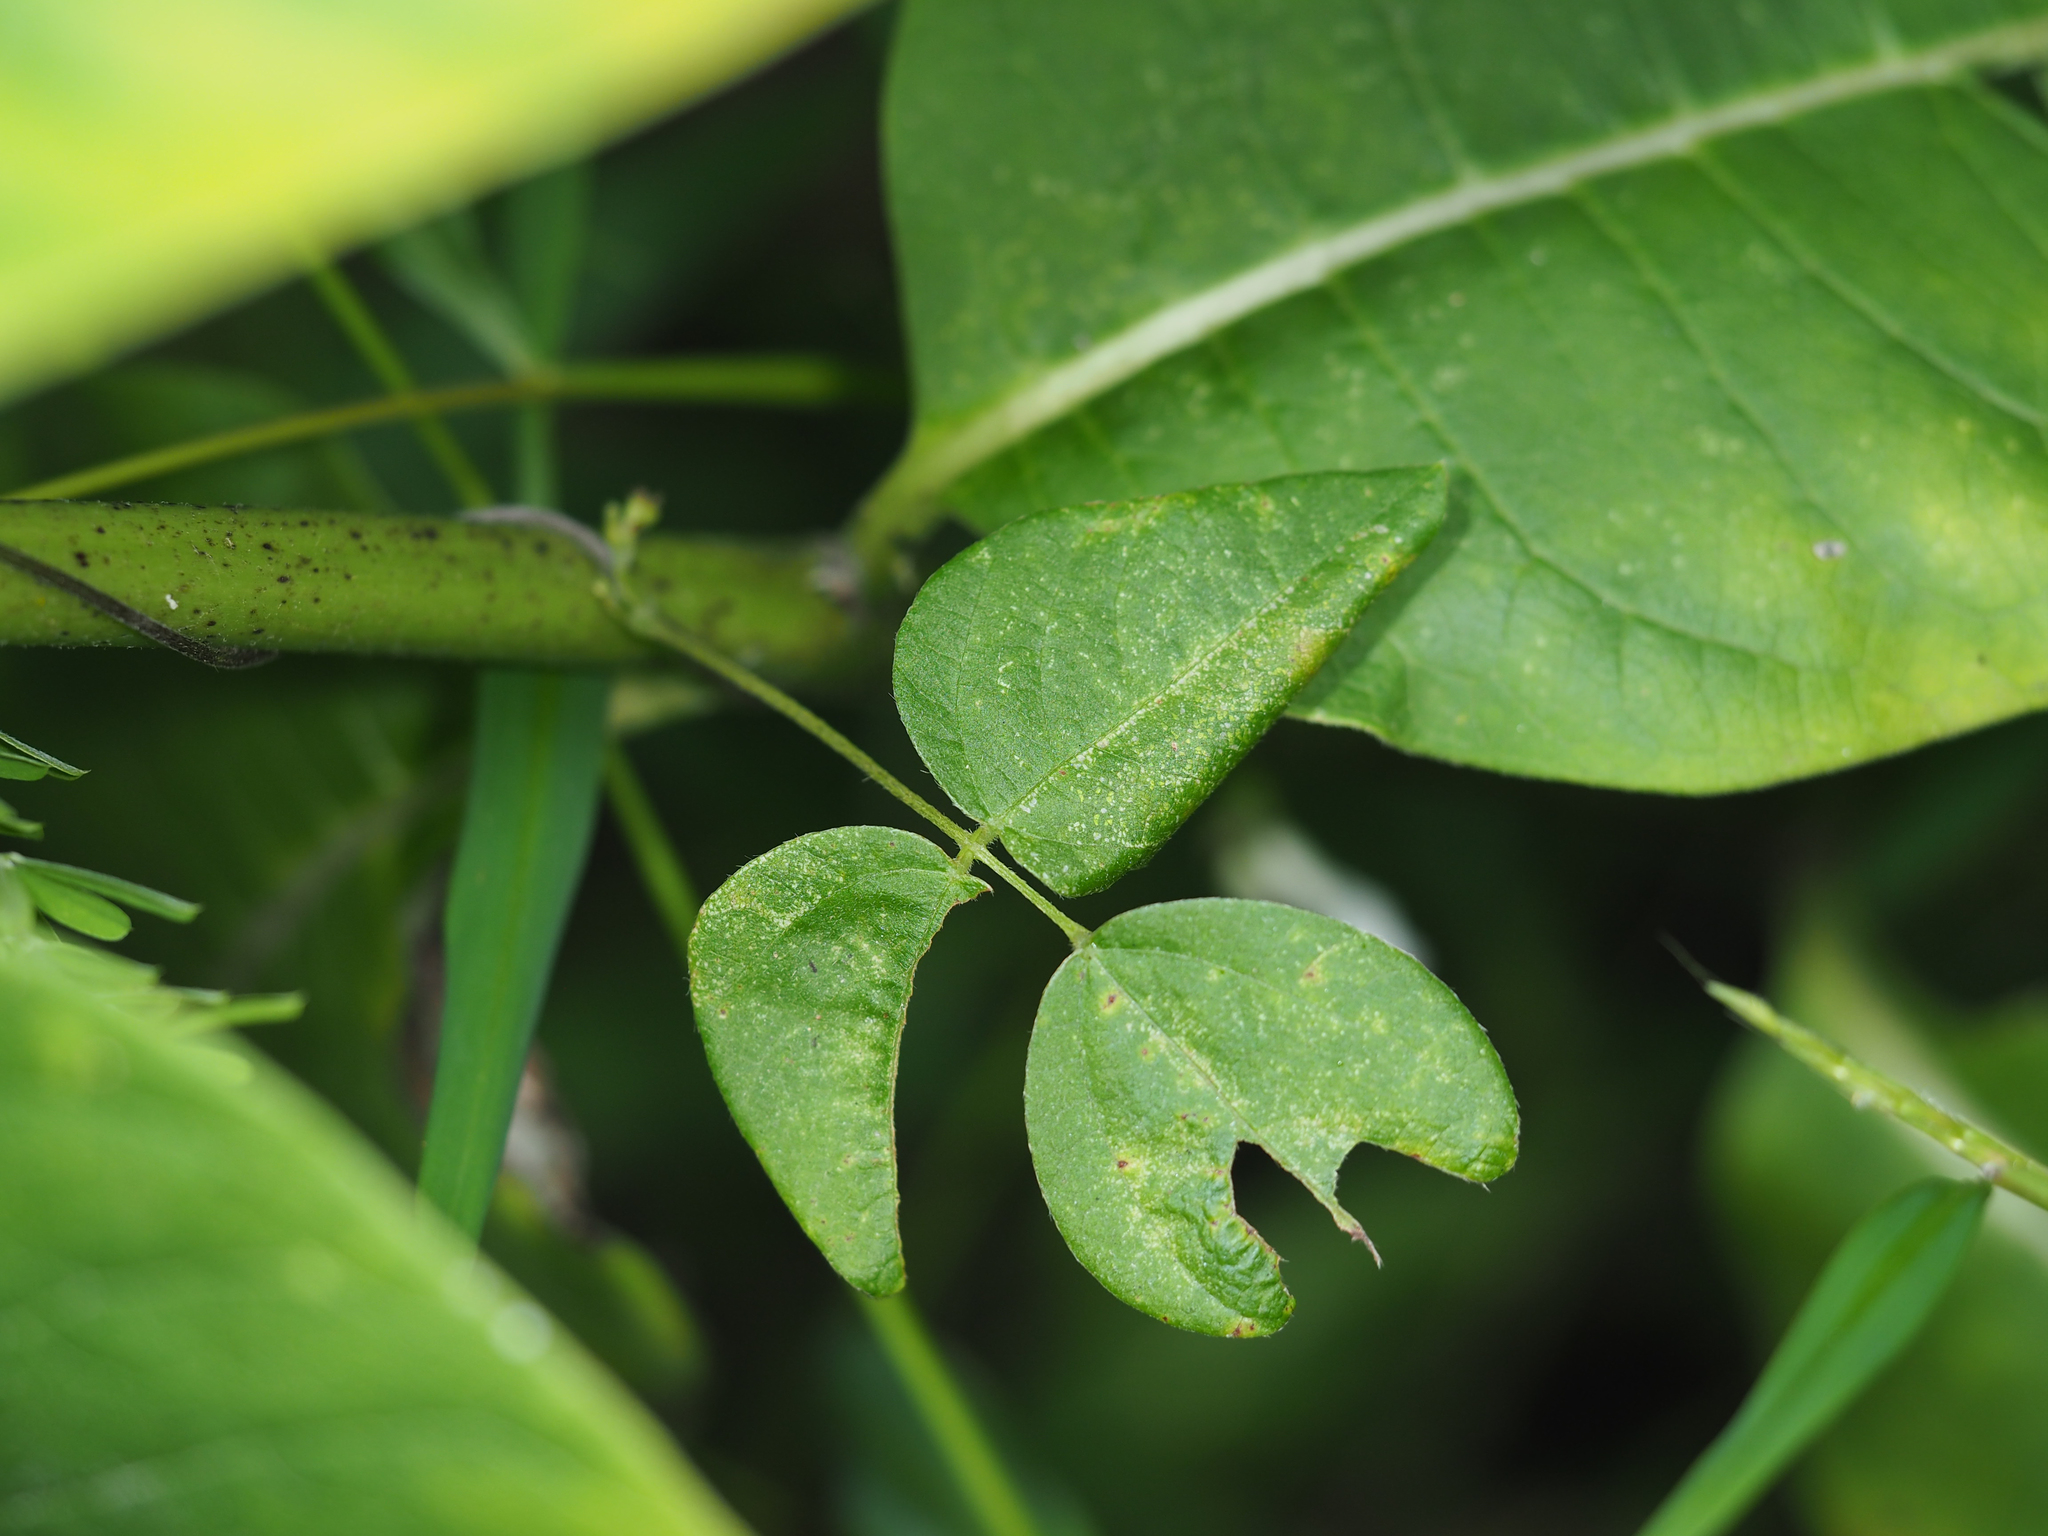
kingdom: Plantae
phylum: Tracheophyta
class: Magnoliopsida
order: Fabales
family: Fabaceae
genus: Amphicarpaea
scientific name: Amphicarpaea bracteata
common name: American hog peanut
